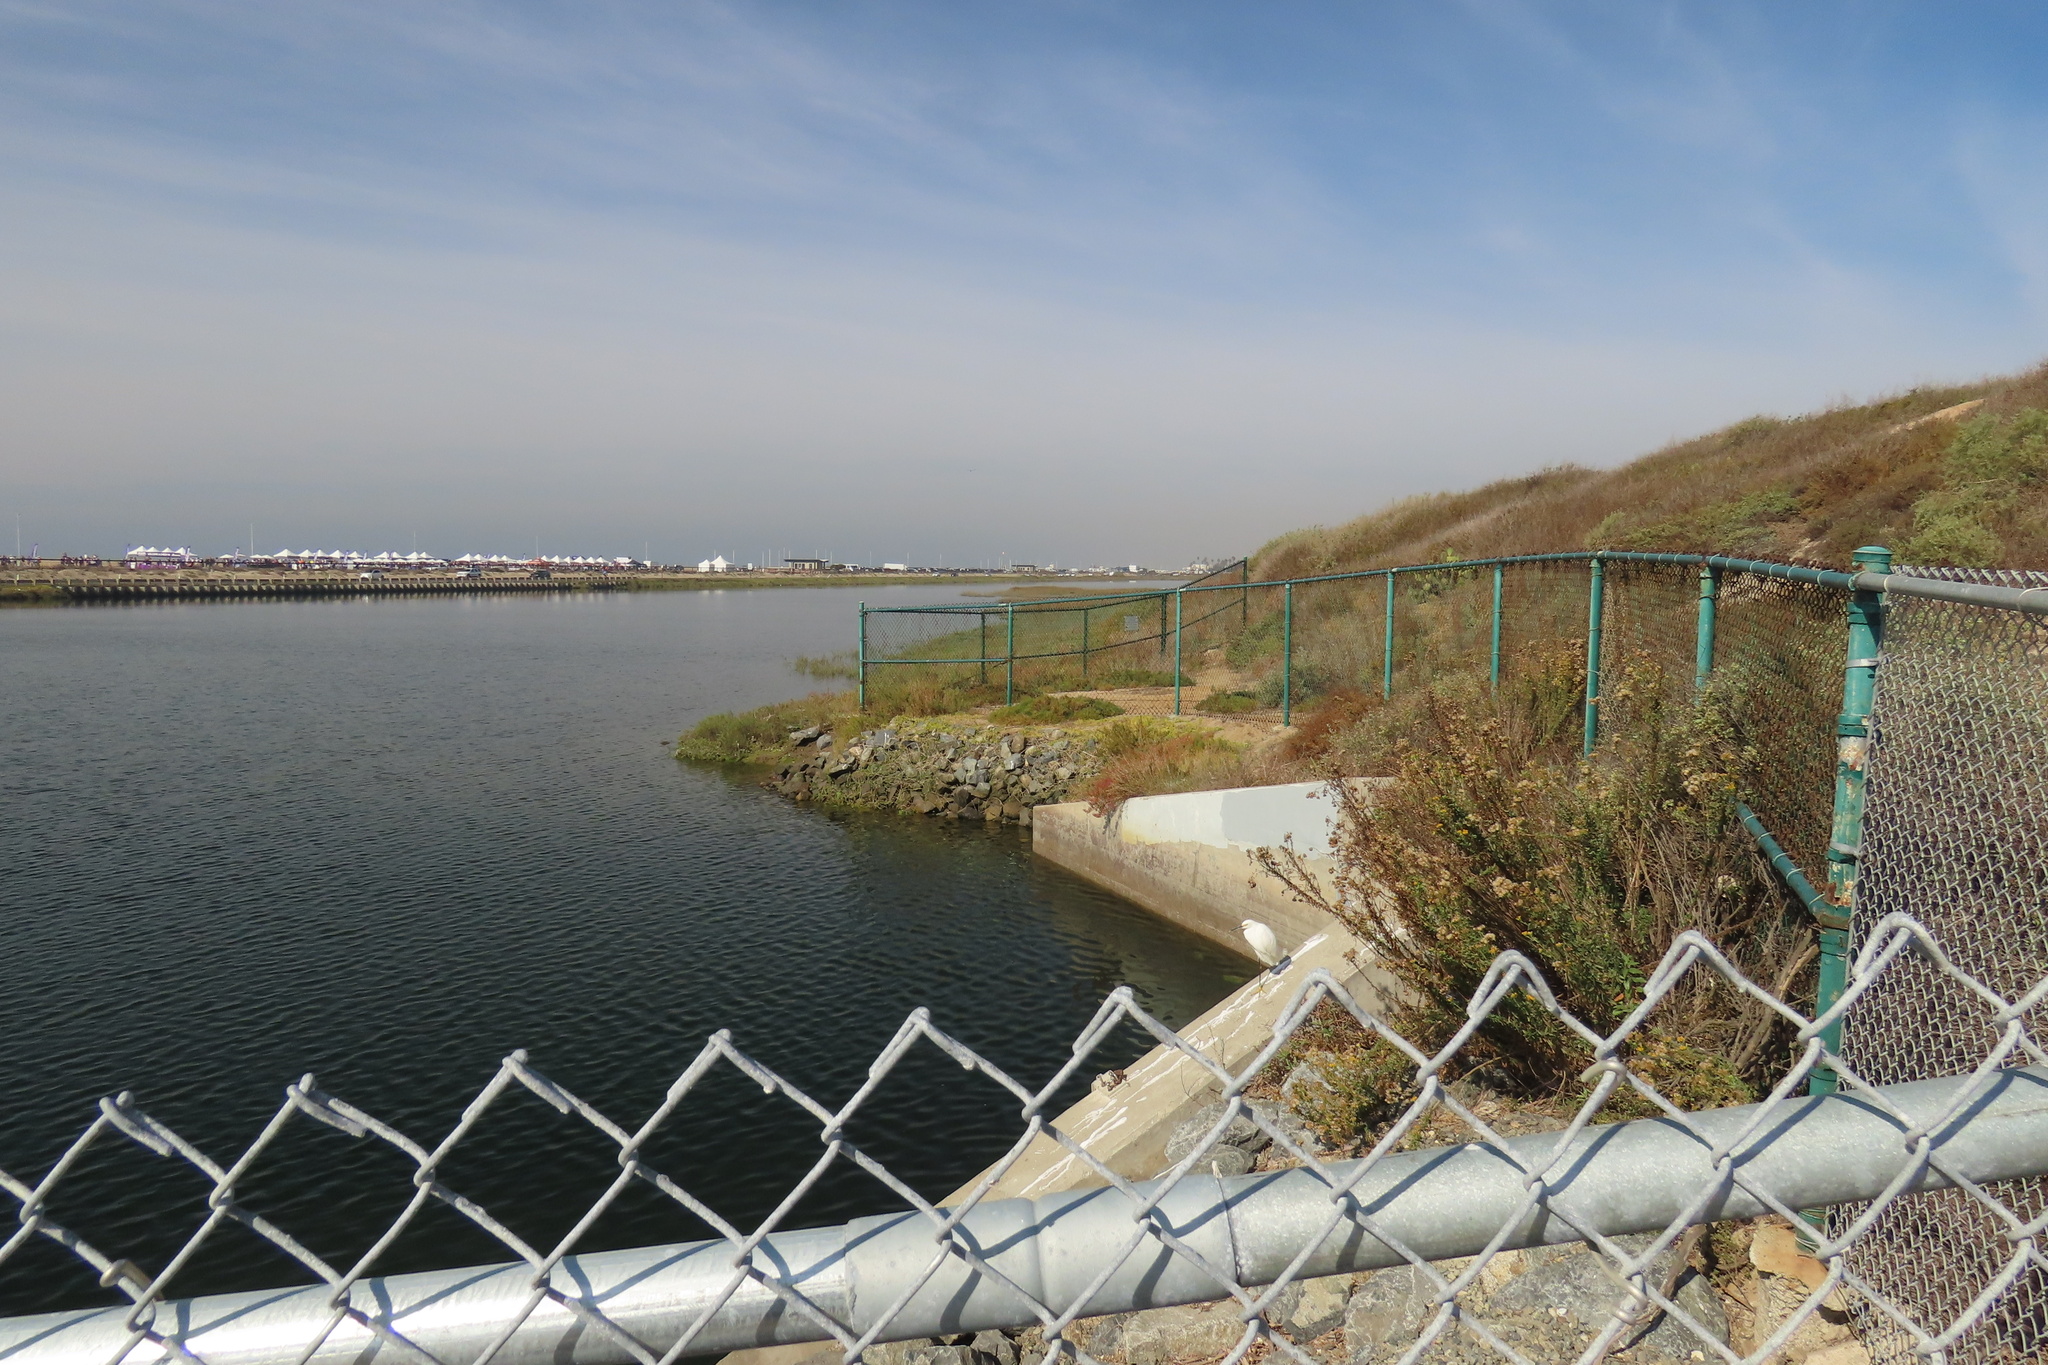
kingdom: Animalia
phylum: Chordata
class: Aves
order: Pelecaniformes
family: Ardeidae
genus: Egretta
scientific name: Egretta thula
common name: Snowy egret
